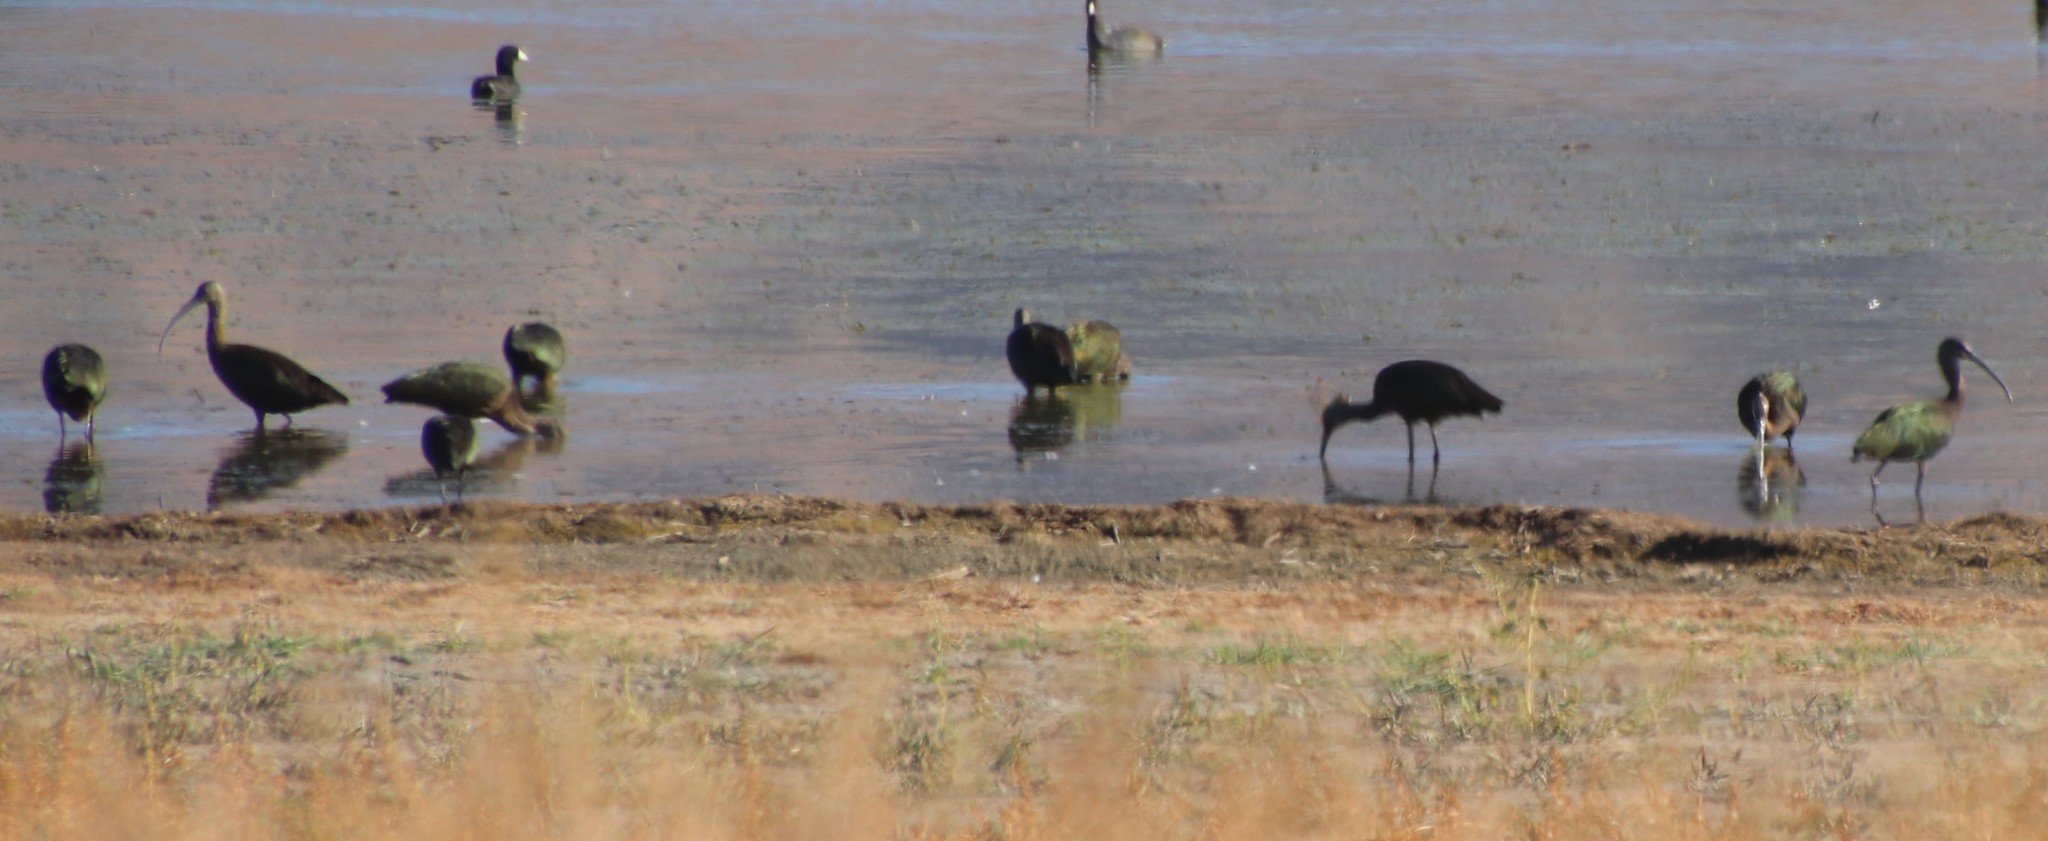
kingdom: Animalia
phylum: Chordata
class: Aves
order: Pelecaniformes
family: Threskiornithidae
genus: Plegadis
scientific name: Plegadis chihi
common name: White-faced ibis
